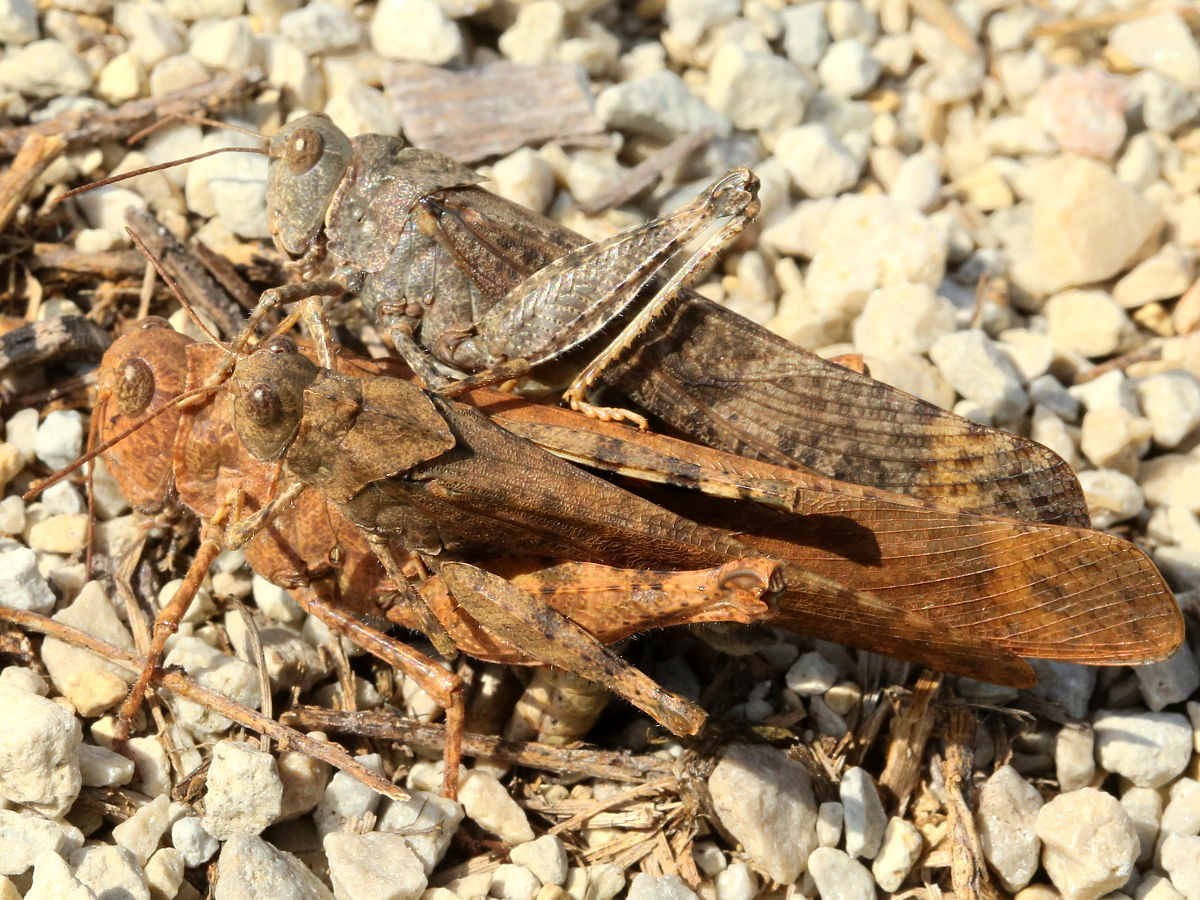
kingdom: Animalia
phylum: Arthropoda
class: Insecta
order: Orthoptera
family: Acrididae
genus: Dissosteira
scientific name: Dissosteira carolina
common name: Carolina grasshopper
